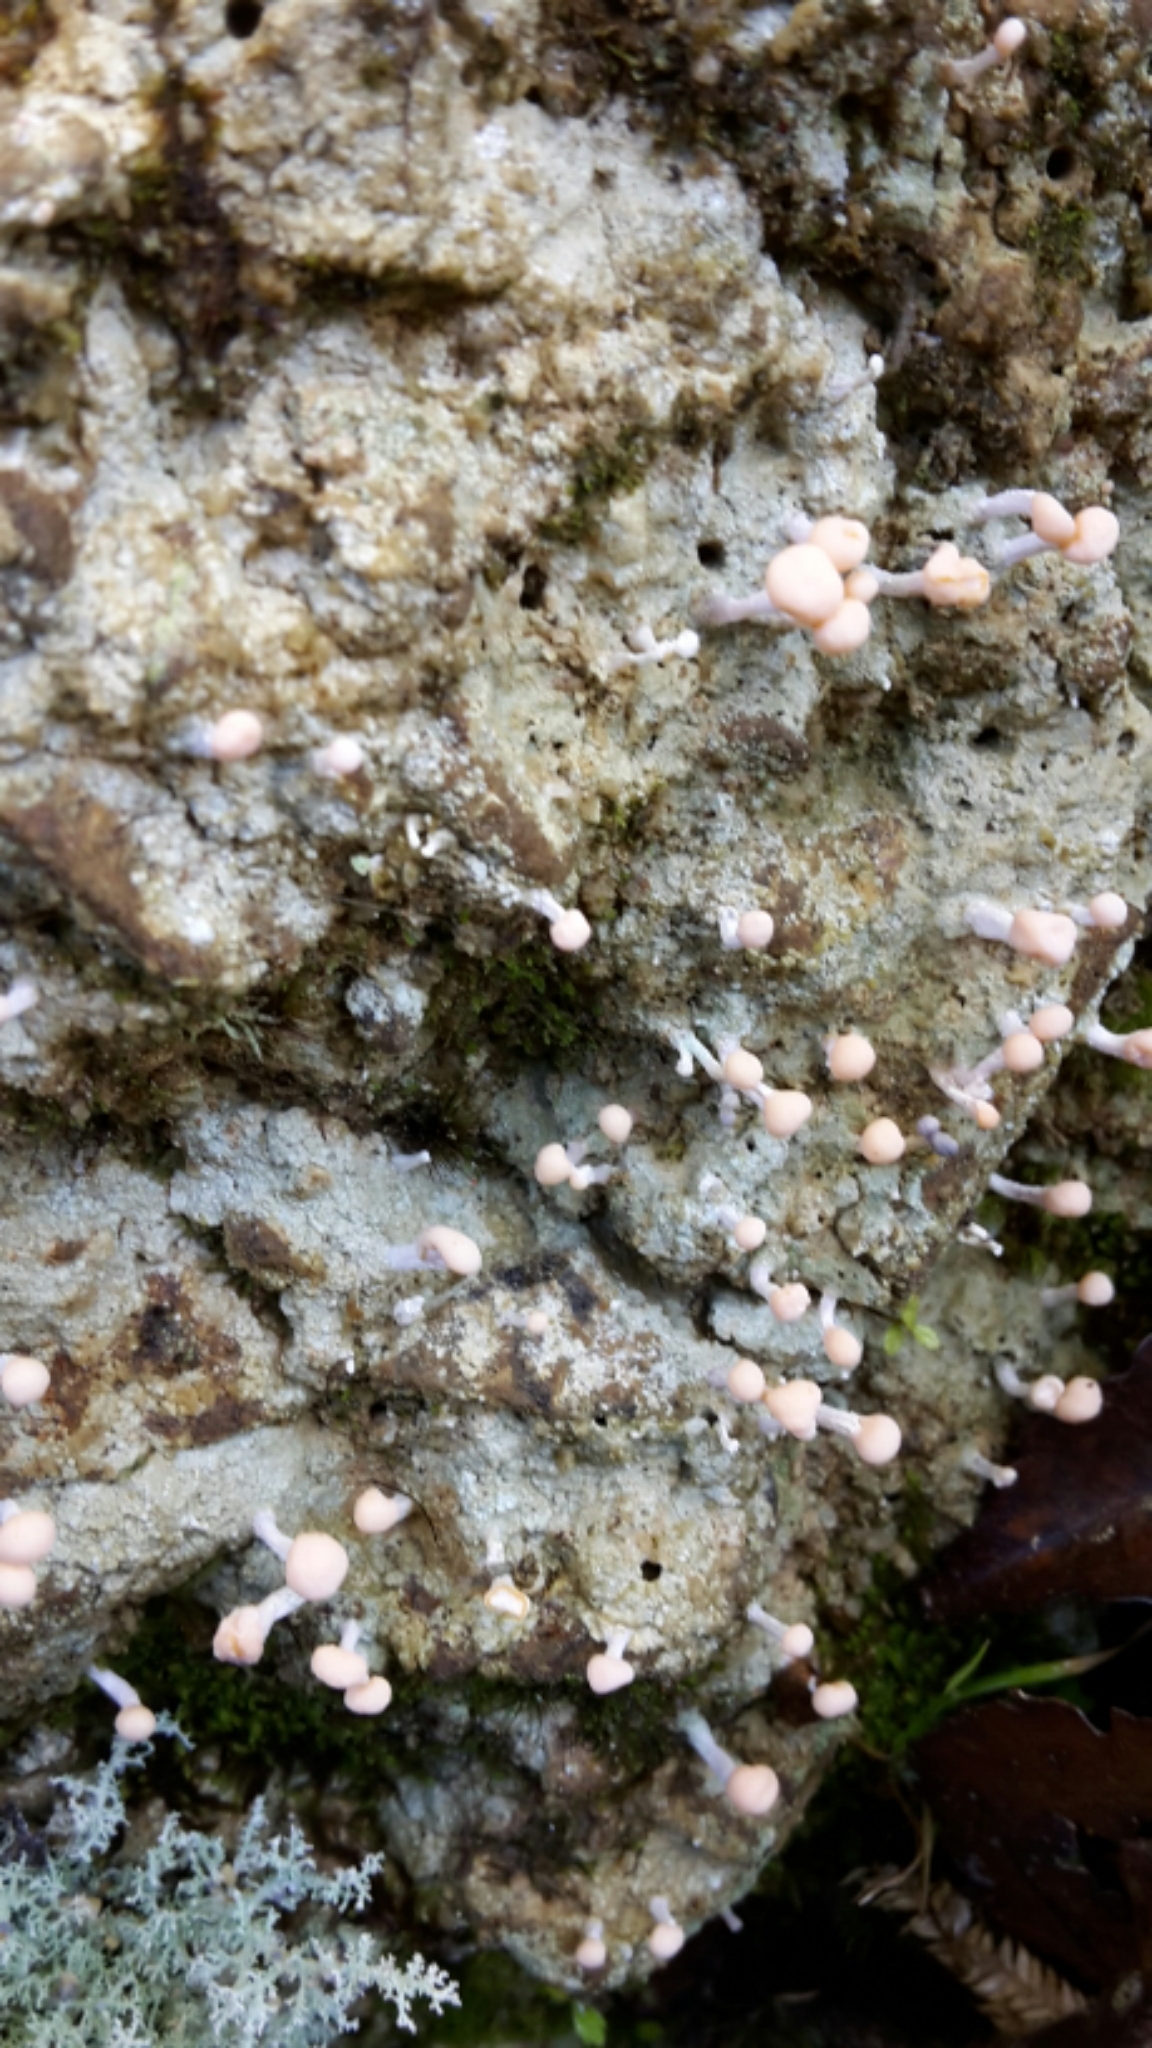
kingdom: Fungi
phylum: Ascomycota
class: Lecanoromycetes
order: Pertusariales
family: Icmadophilaceae
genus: Dibaeis
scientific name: Dibaeis arcuata
